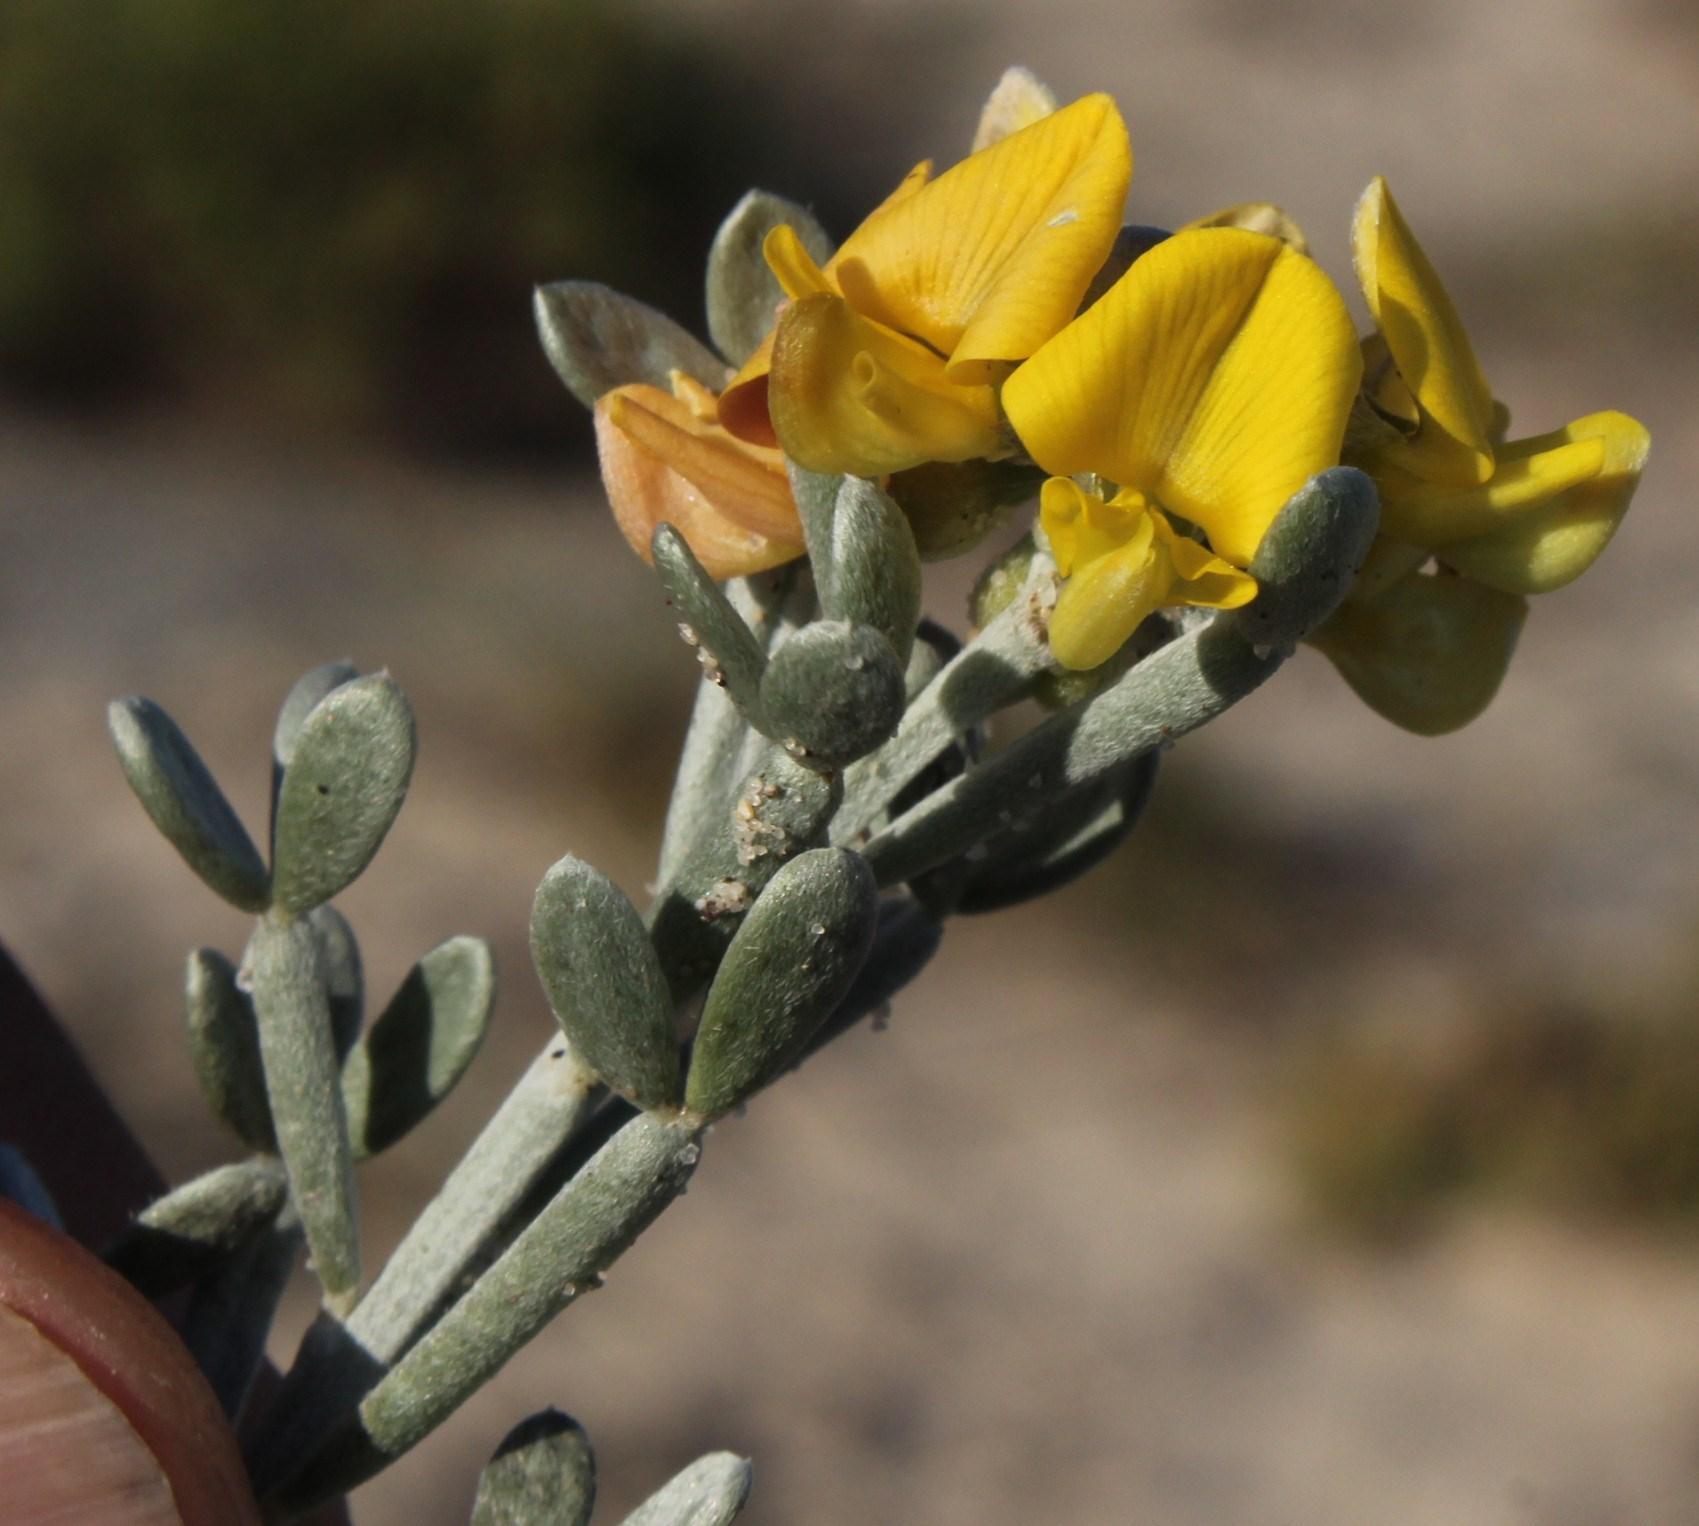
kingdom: Plantae
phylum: Tracheophyta
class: Magnoliopsida
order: Fabales
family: Fabaceae
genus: Calobota
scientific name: Calobota angustifolia
